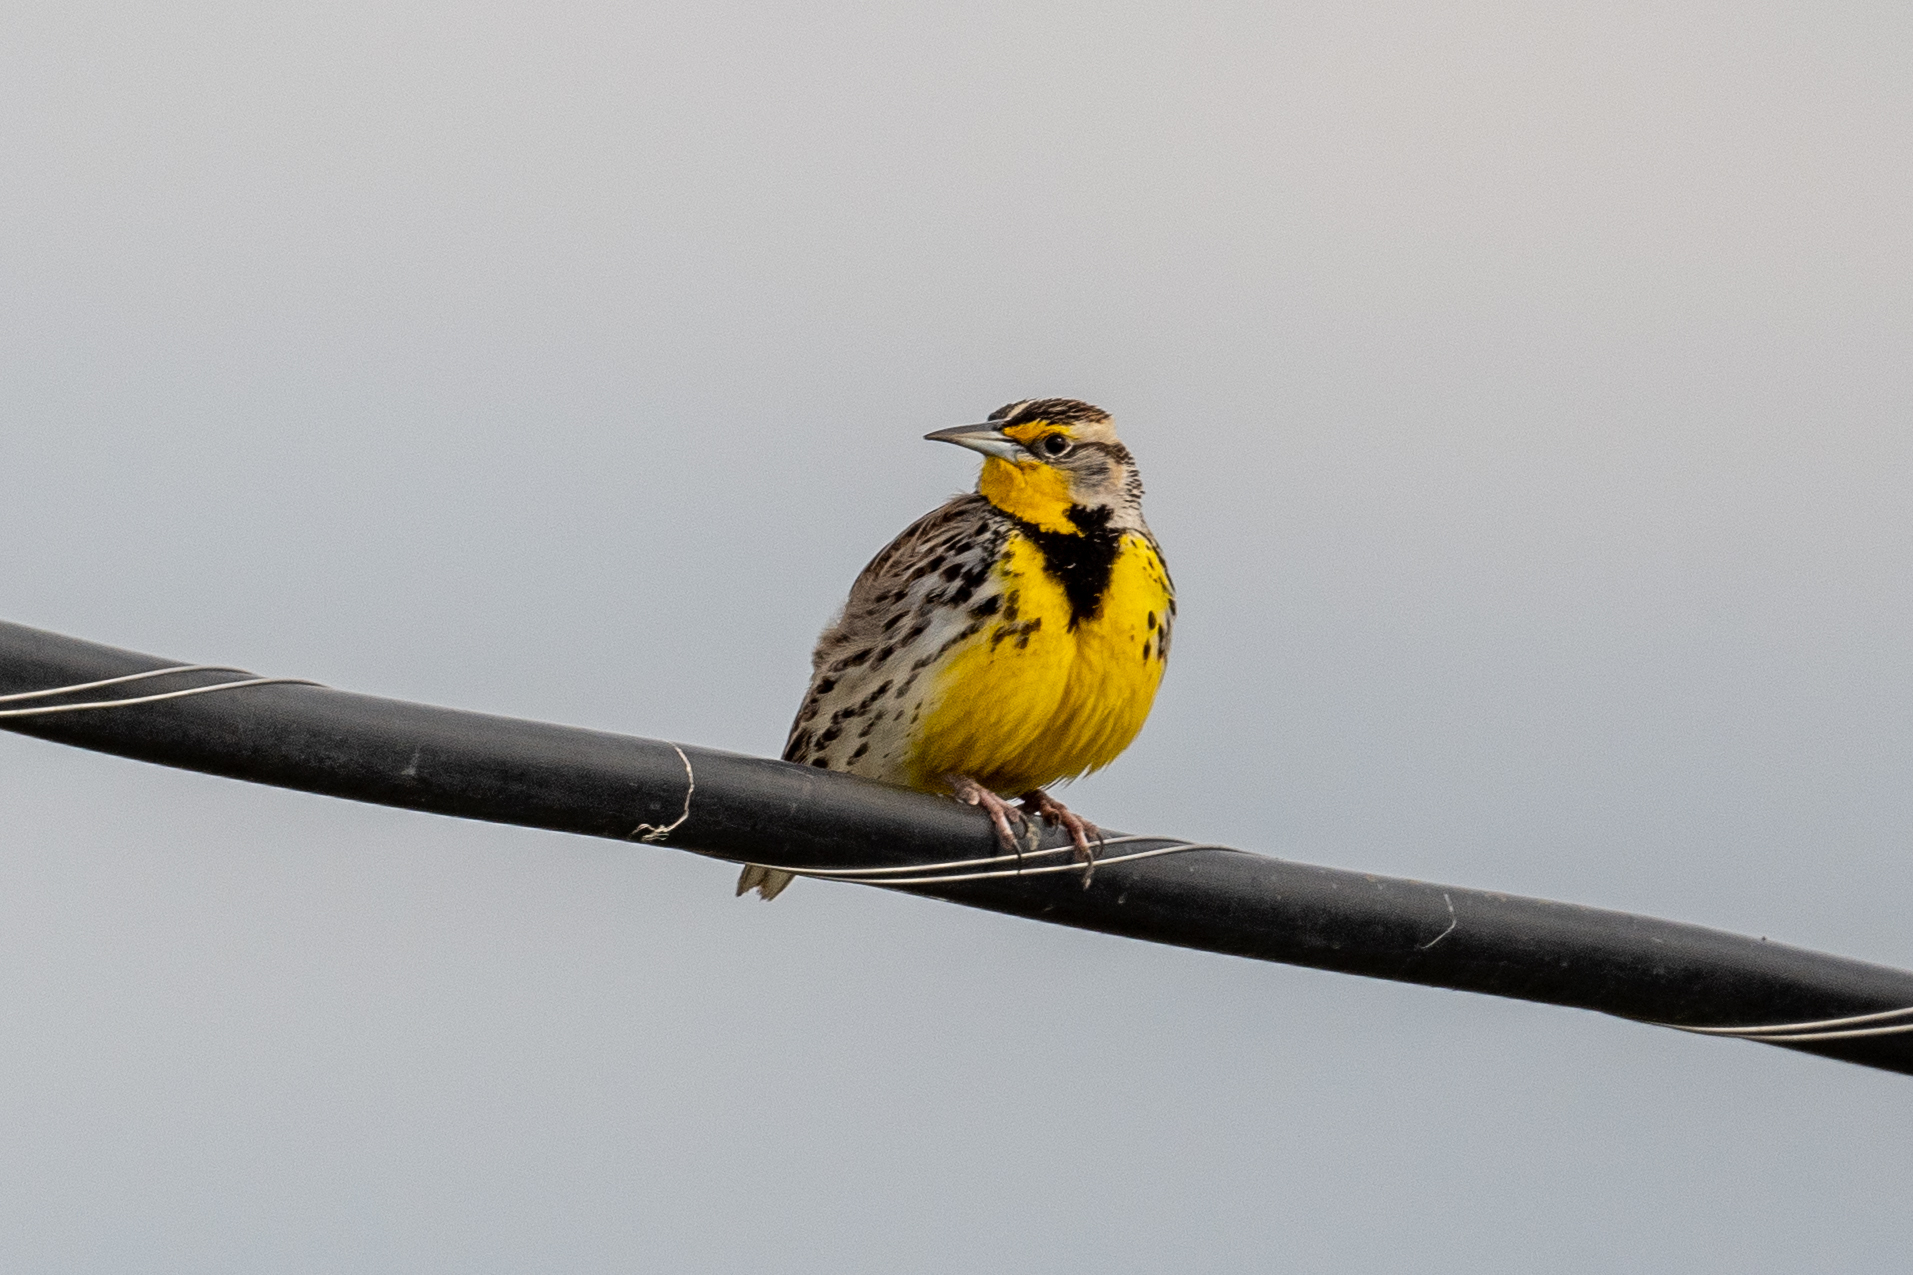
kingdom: Animalia
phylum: Chordata
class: Aves
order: Passeriformes
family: Icteridae
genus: Sturnella
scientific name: Sturnella neglecta
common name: Western meadowlark
